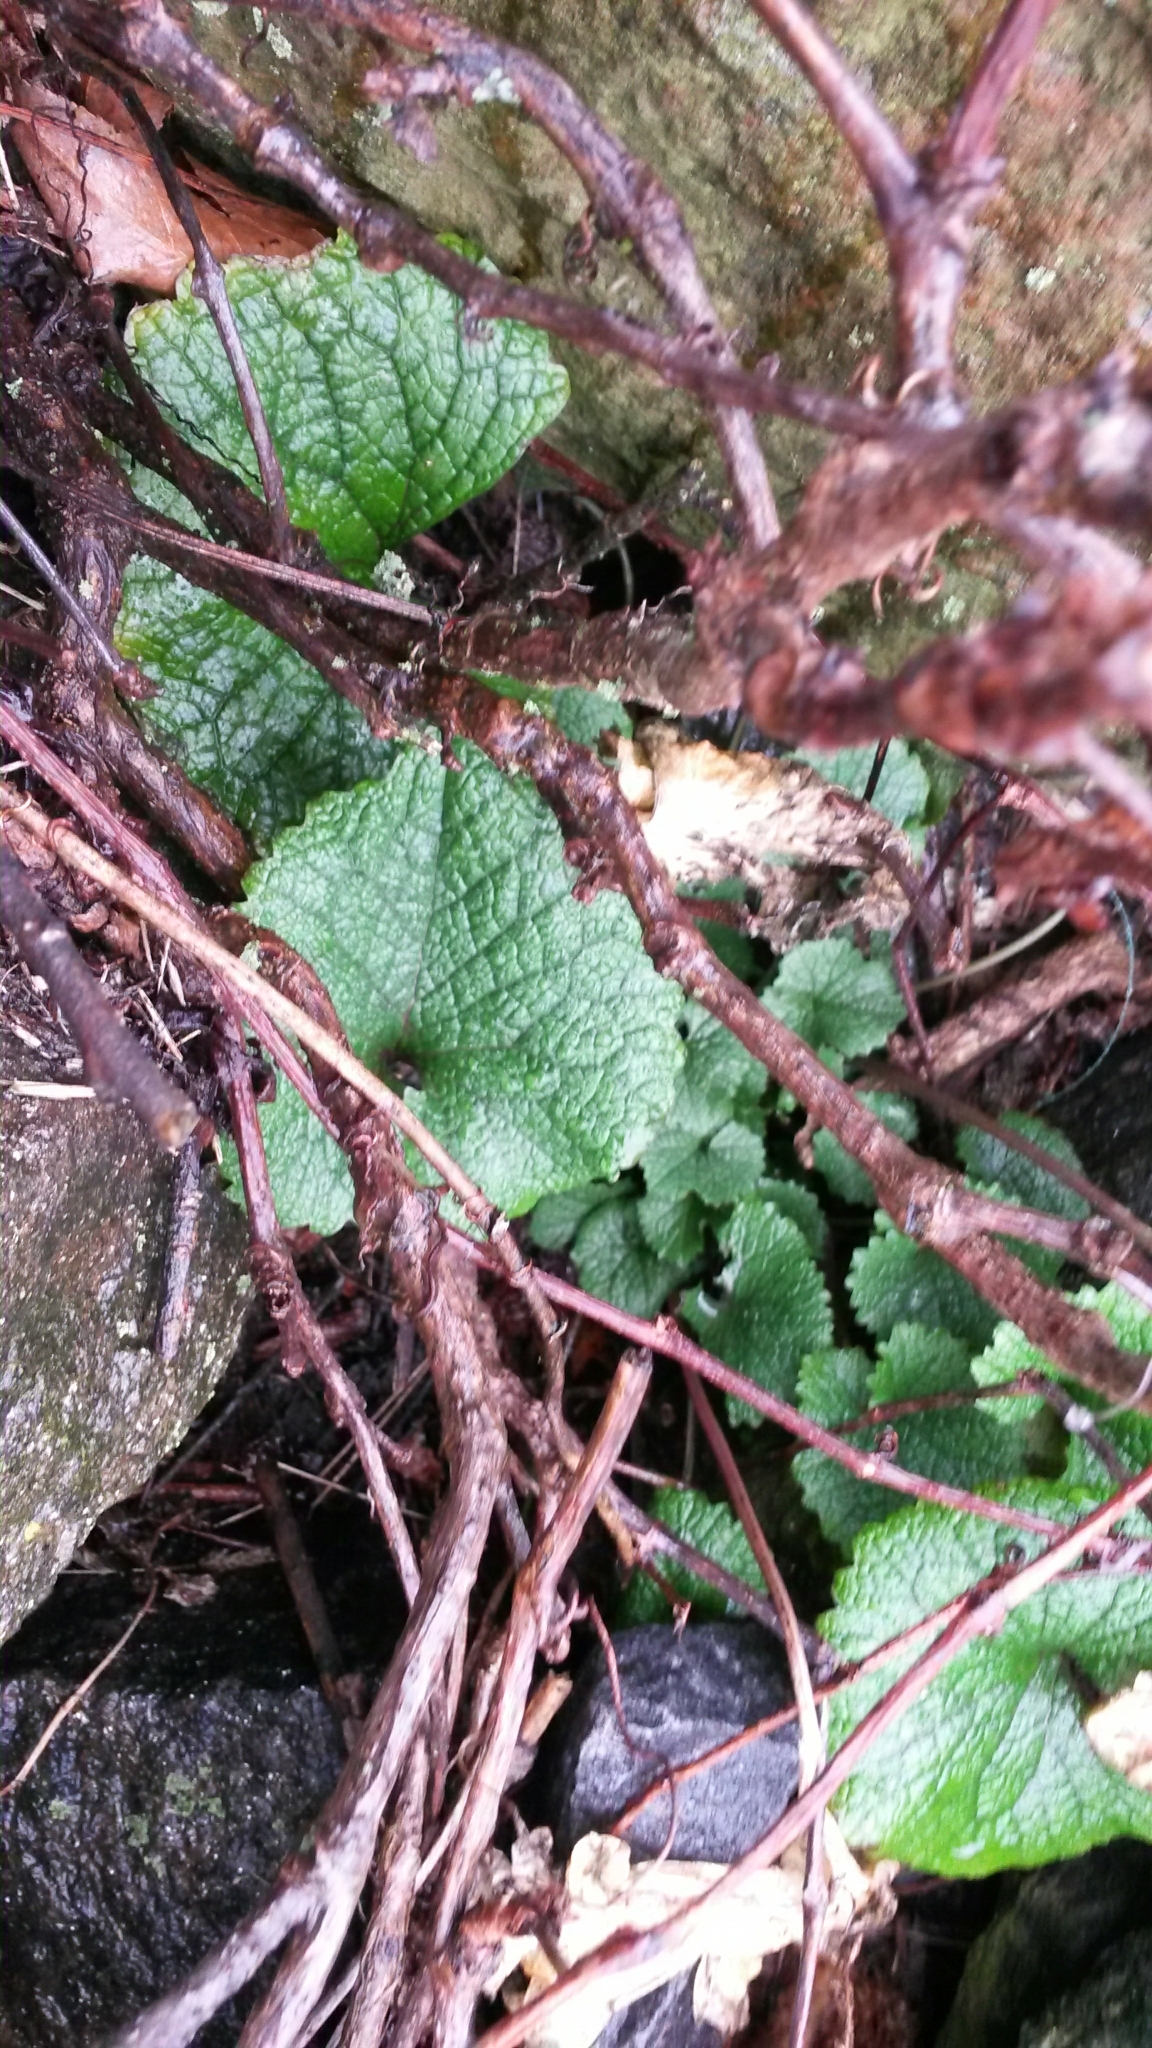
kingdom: Plantae
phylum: Tracheophyta
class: Magnoliopsida
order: Brassicales
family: Brassicaceae
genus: Alliaria
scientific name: Alliaria petiolata
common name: Garlic mustard
